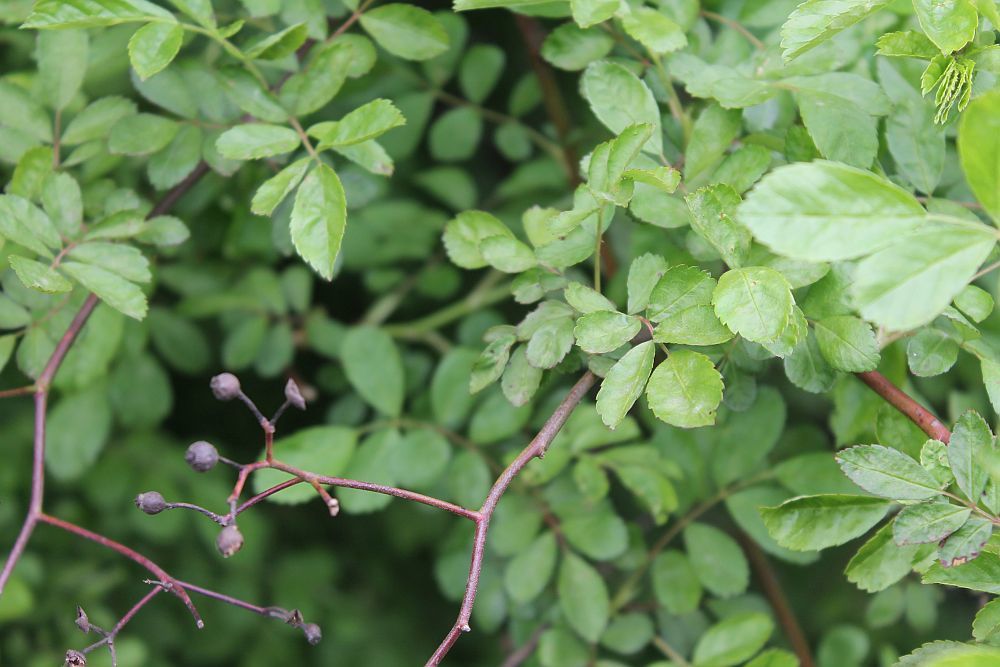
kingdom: Plantae
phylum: Tracheophyta
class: Magnoliopsida
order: Rosales
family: Rosaceae
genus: Rosa
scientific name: Rosa canina
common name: Dog rose
